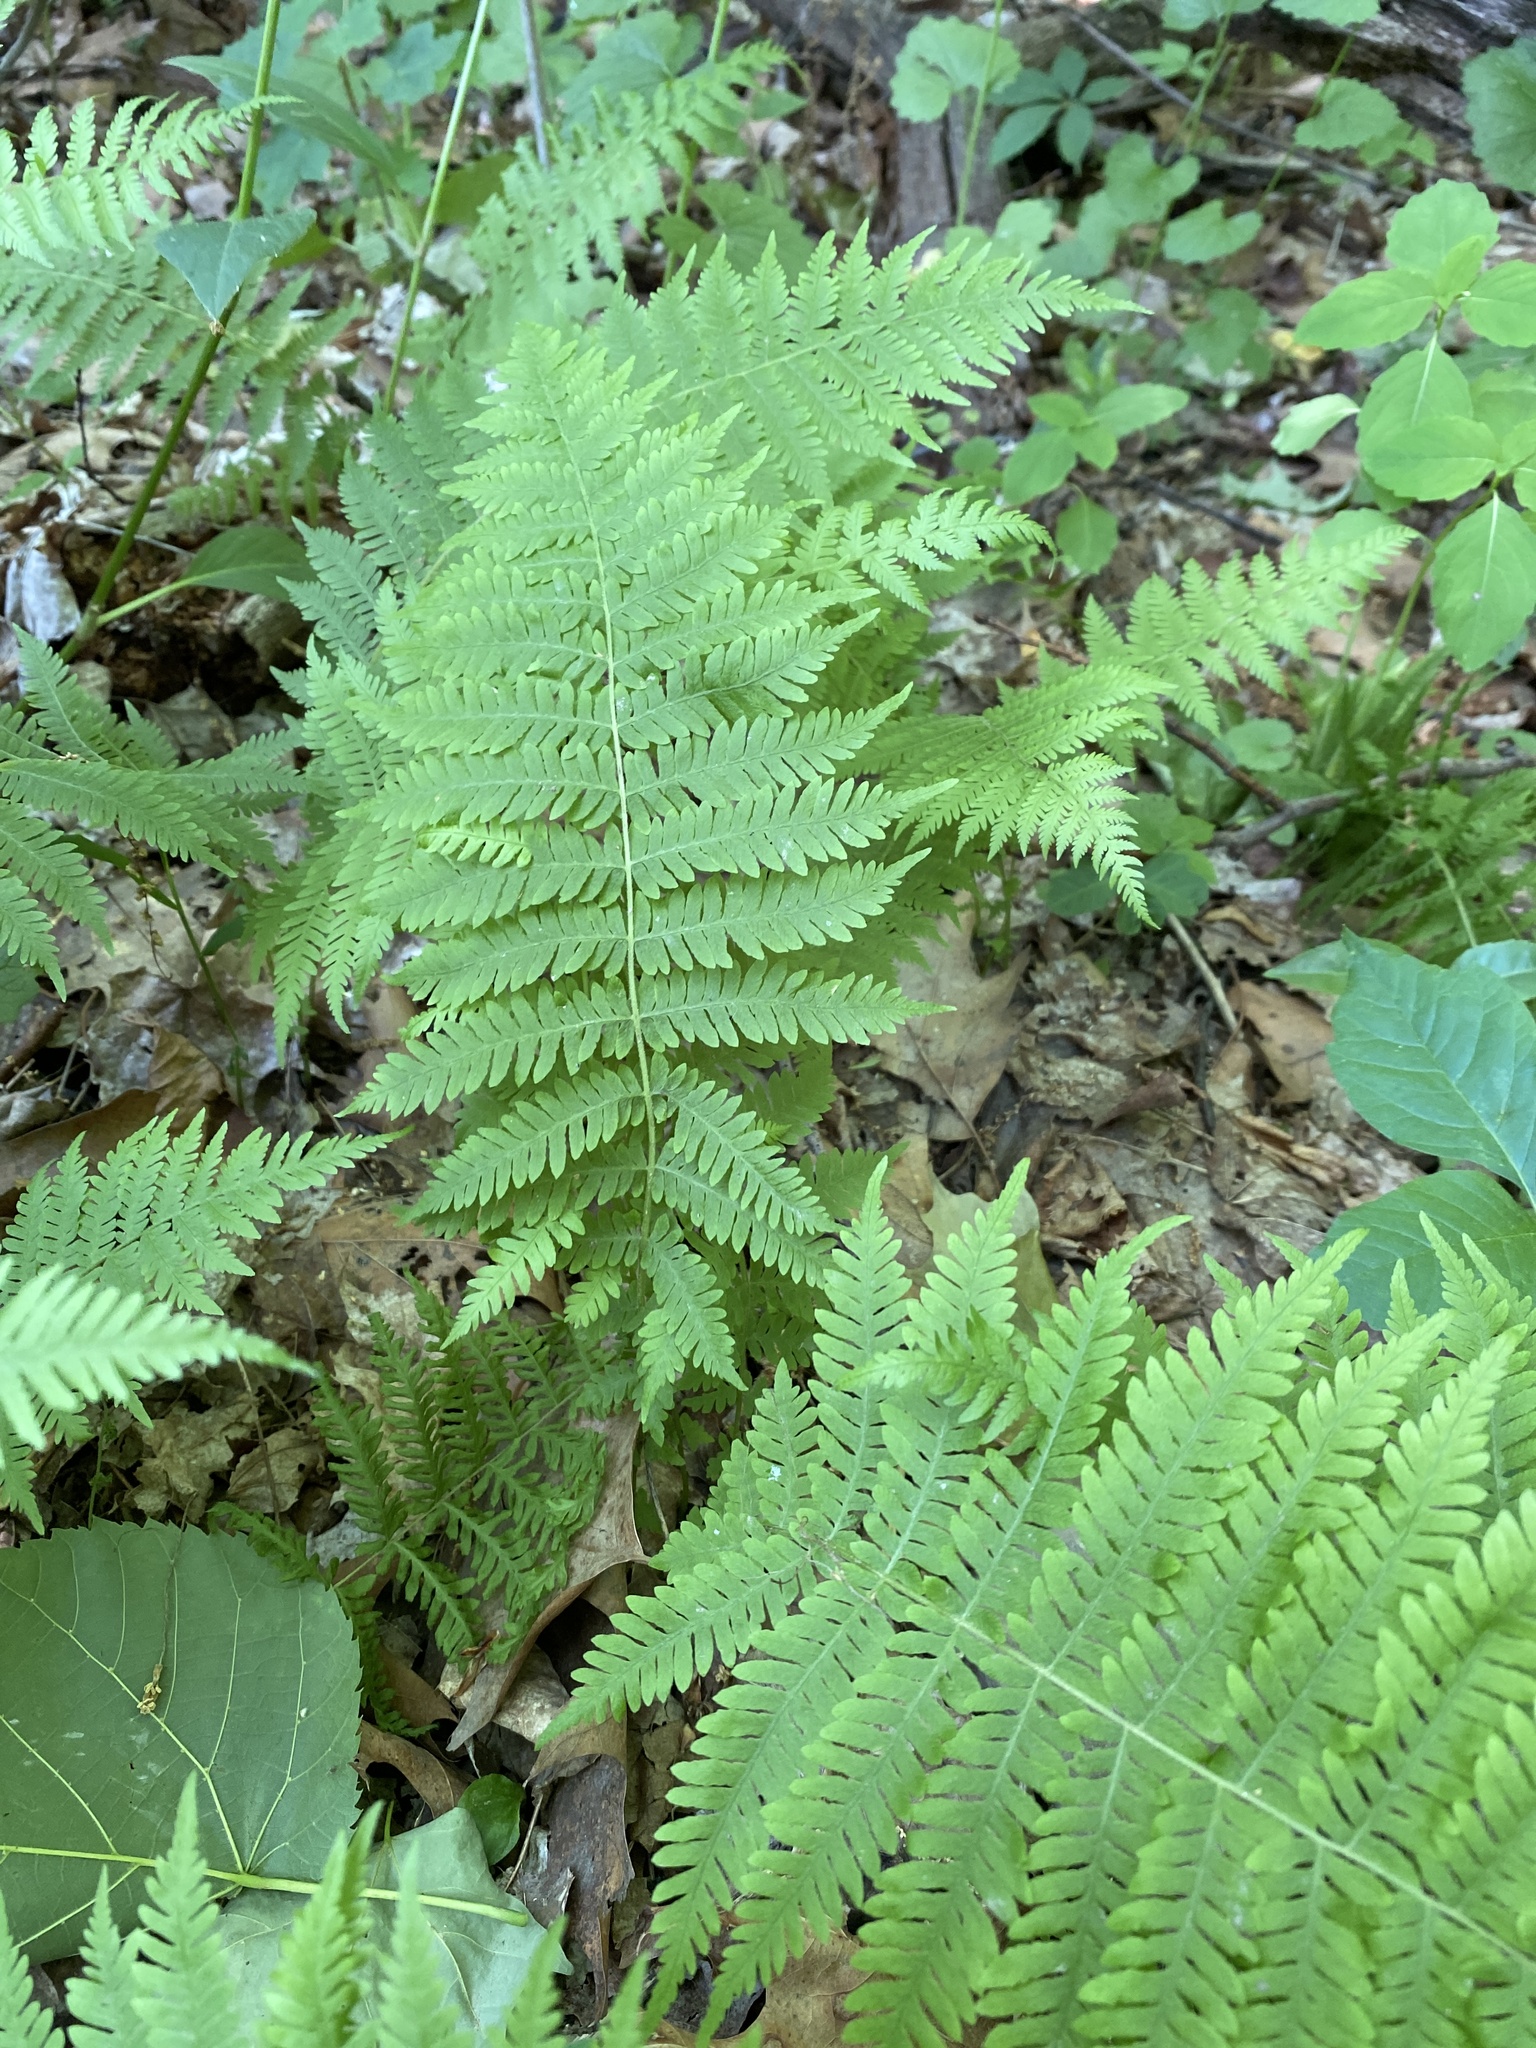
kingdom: Plantae
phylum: Tracheophyta
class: Polypodiopsida
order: Polypodiales
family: Thelypteridaceae
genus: Amauropelta
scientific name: Amauropelta noveboracensis
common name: New york fern
